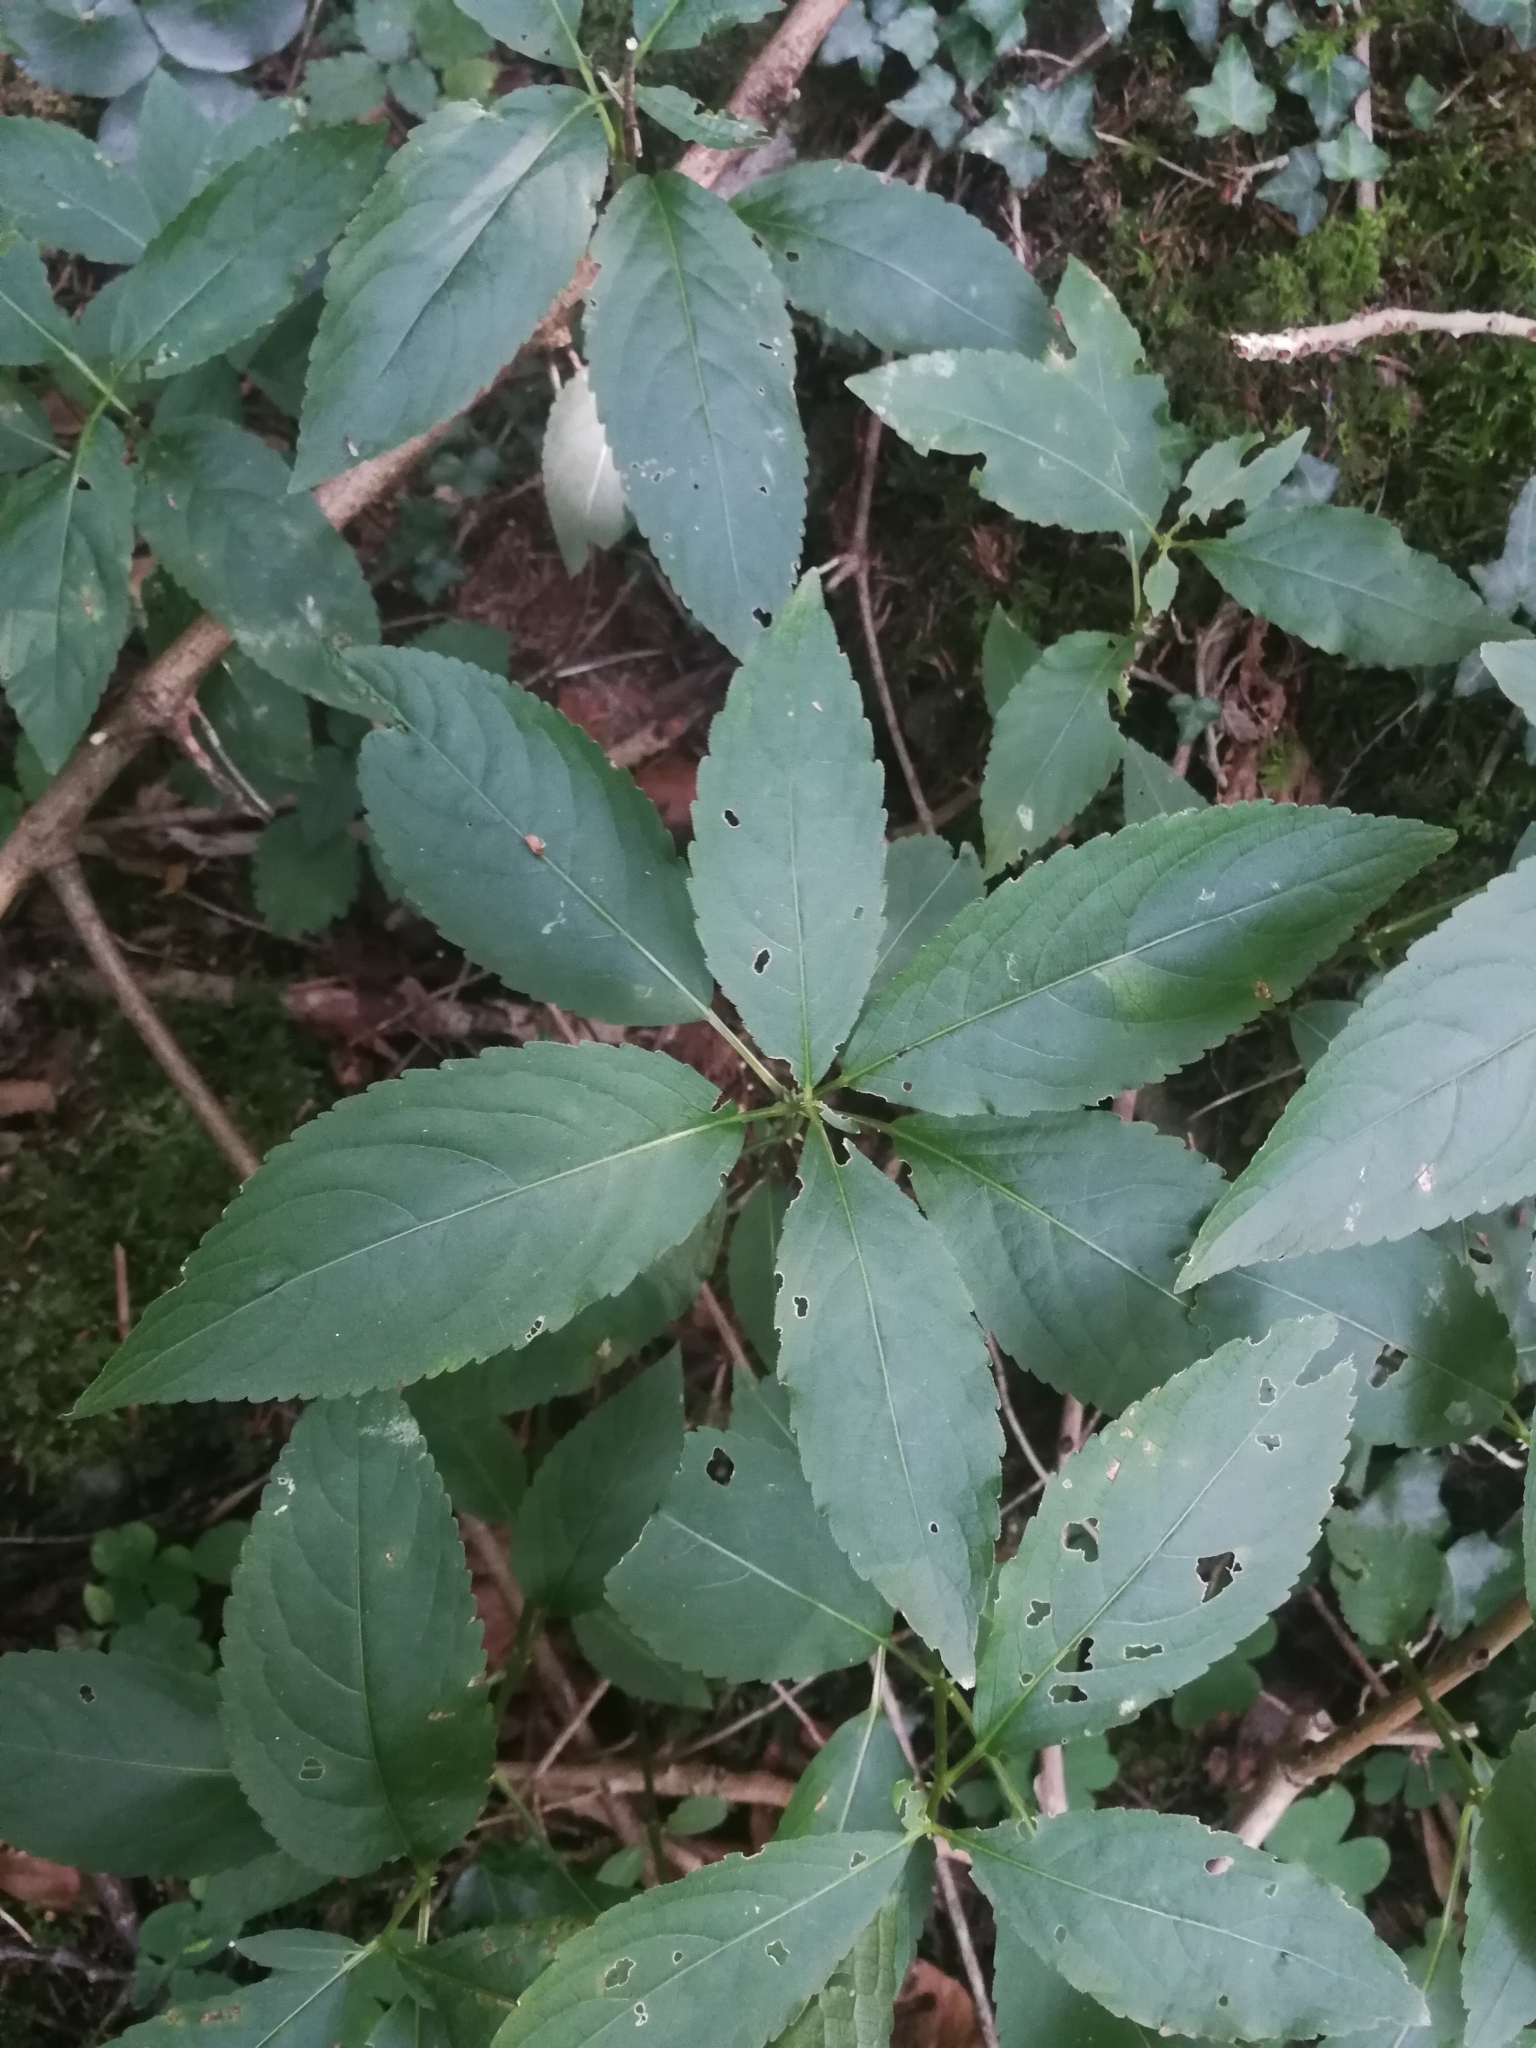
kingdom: Plantae
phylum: Tracheophyta
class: Magnoliopsida
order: Malpighiales
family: Euphorbiaceae
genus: Mercurialis
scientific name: Mercurialis perennis
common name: Dog mercury
